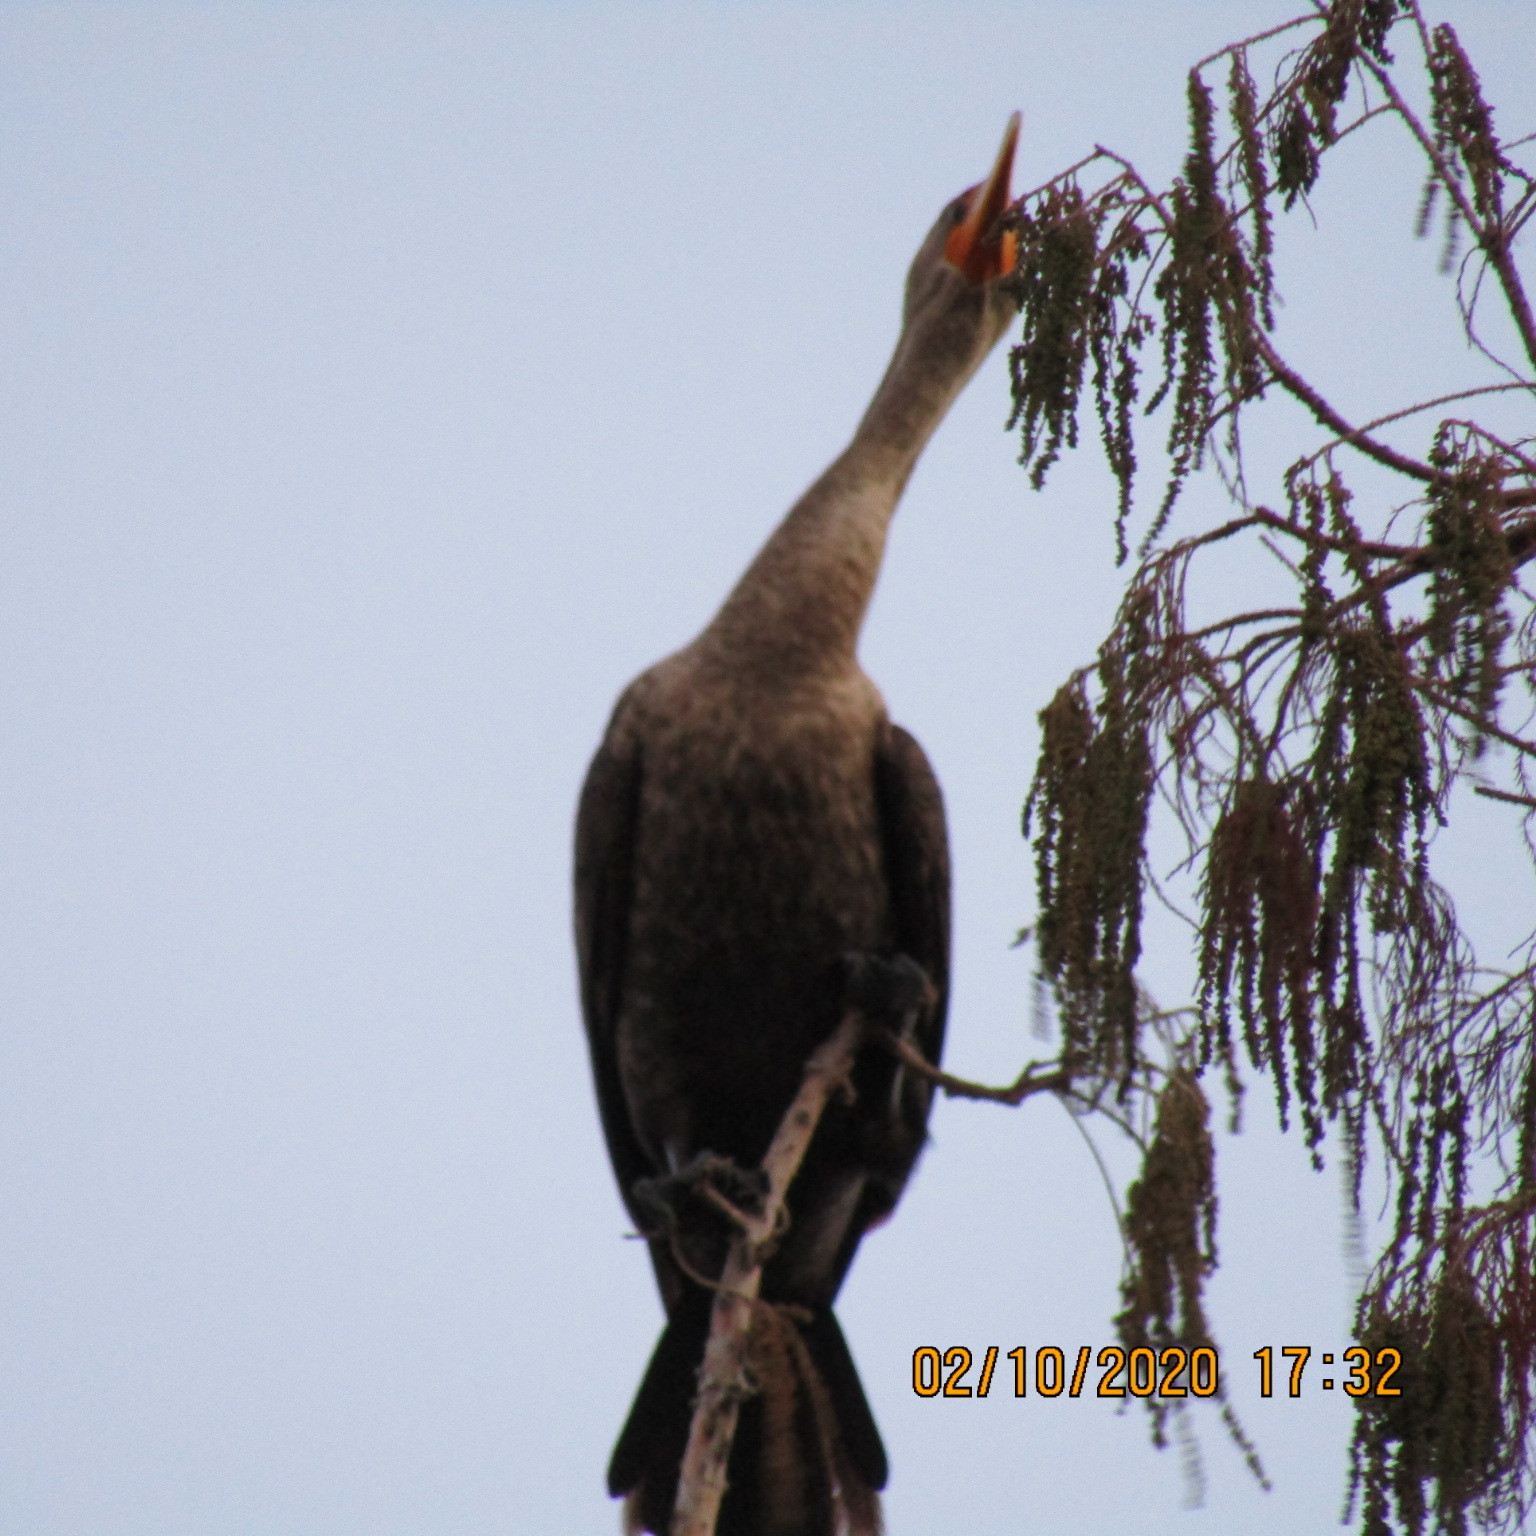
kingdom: Animalia
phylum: Chordata
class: Aves
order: Suliformes
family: Phalacrocoracidae
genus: Phalacrocorax
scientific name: Phalacrocorax auritus
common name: Double-crested cormorant
